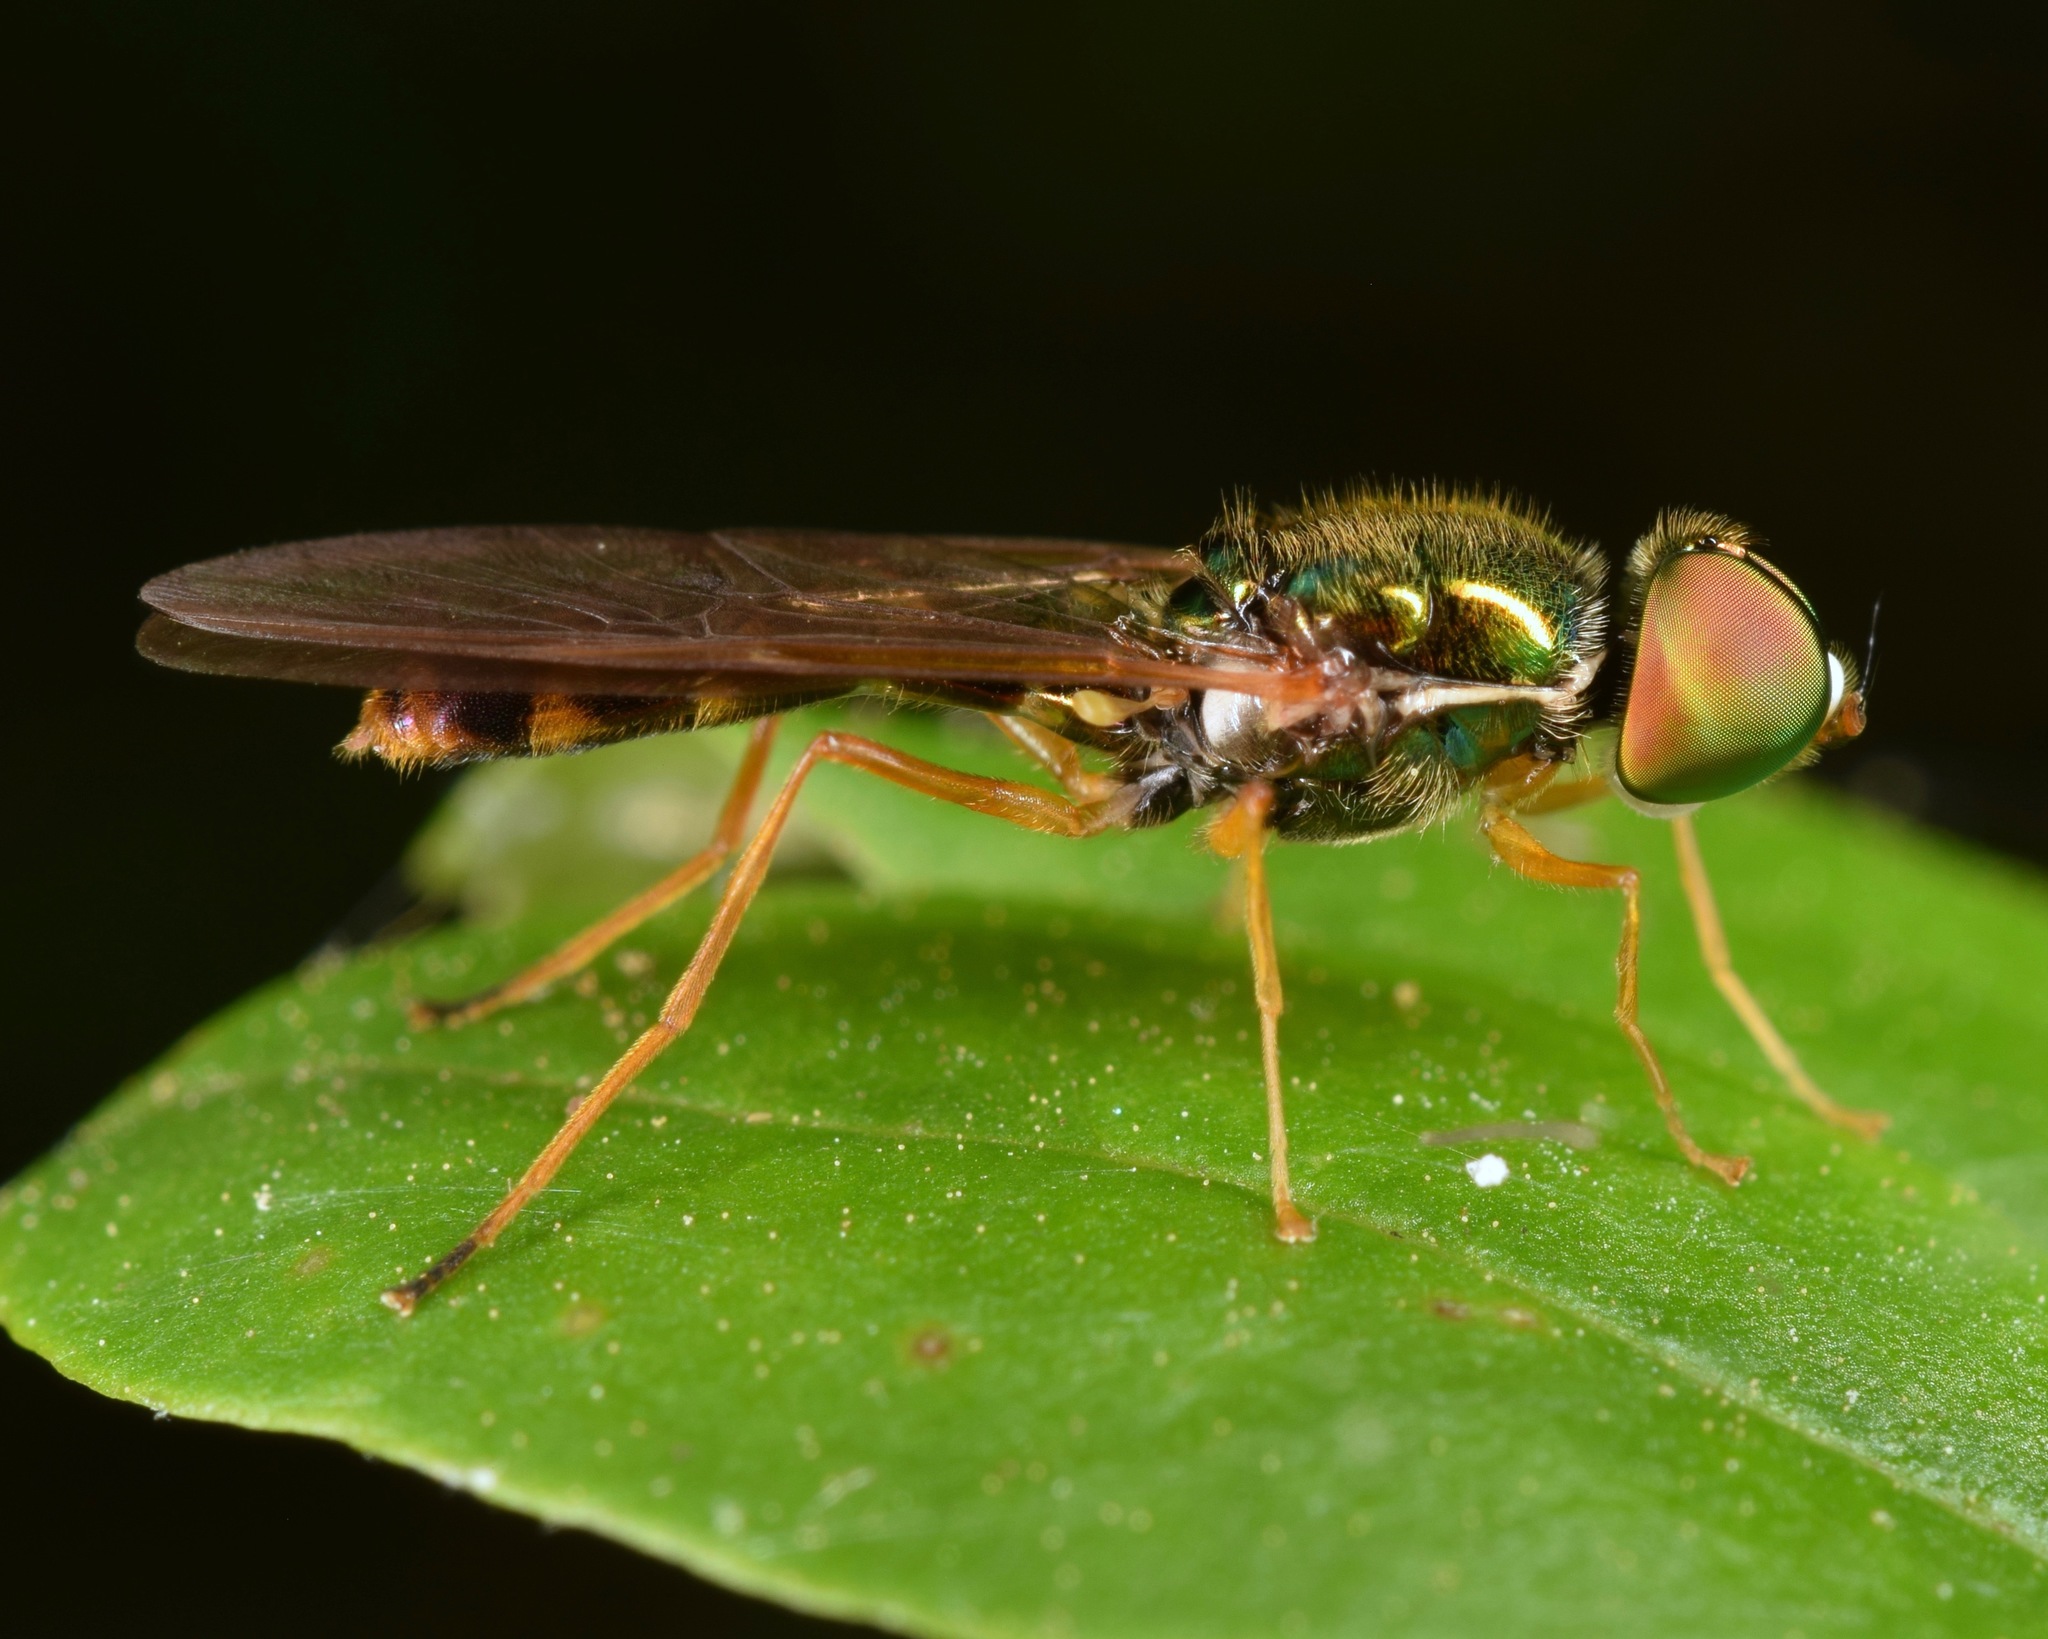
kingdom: Animalia
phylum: Arthropoda
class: Insecta
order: Diptera
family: Stratiomyidae
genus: Sargus
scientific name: Sargus fasciatus
